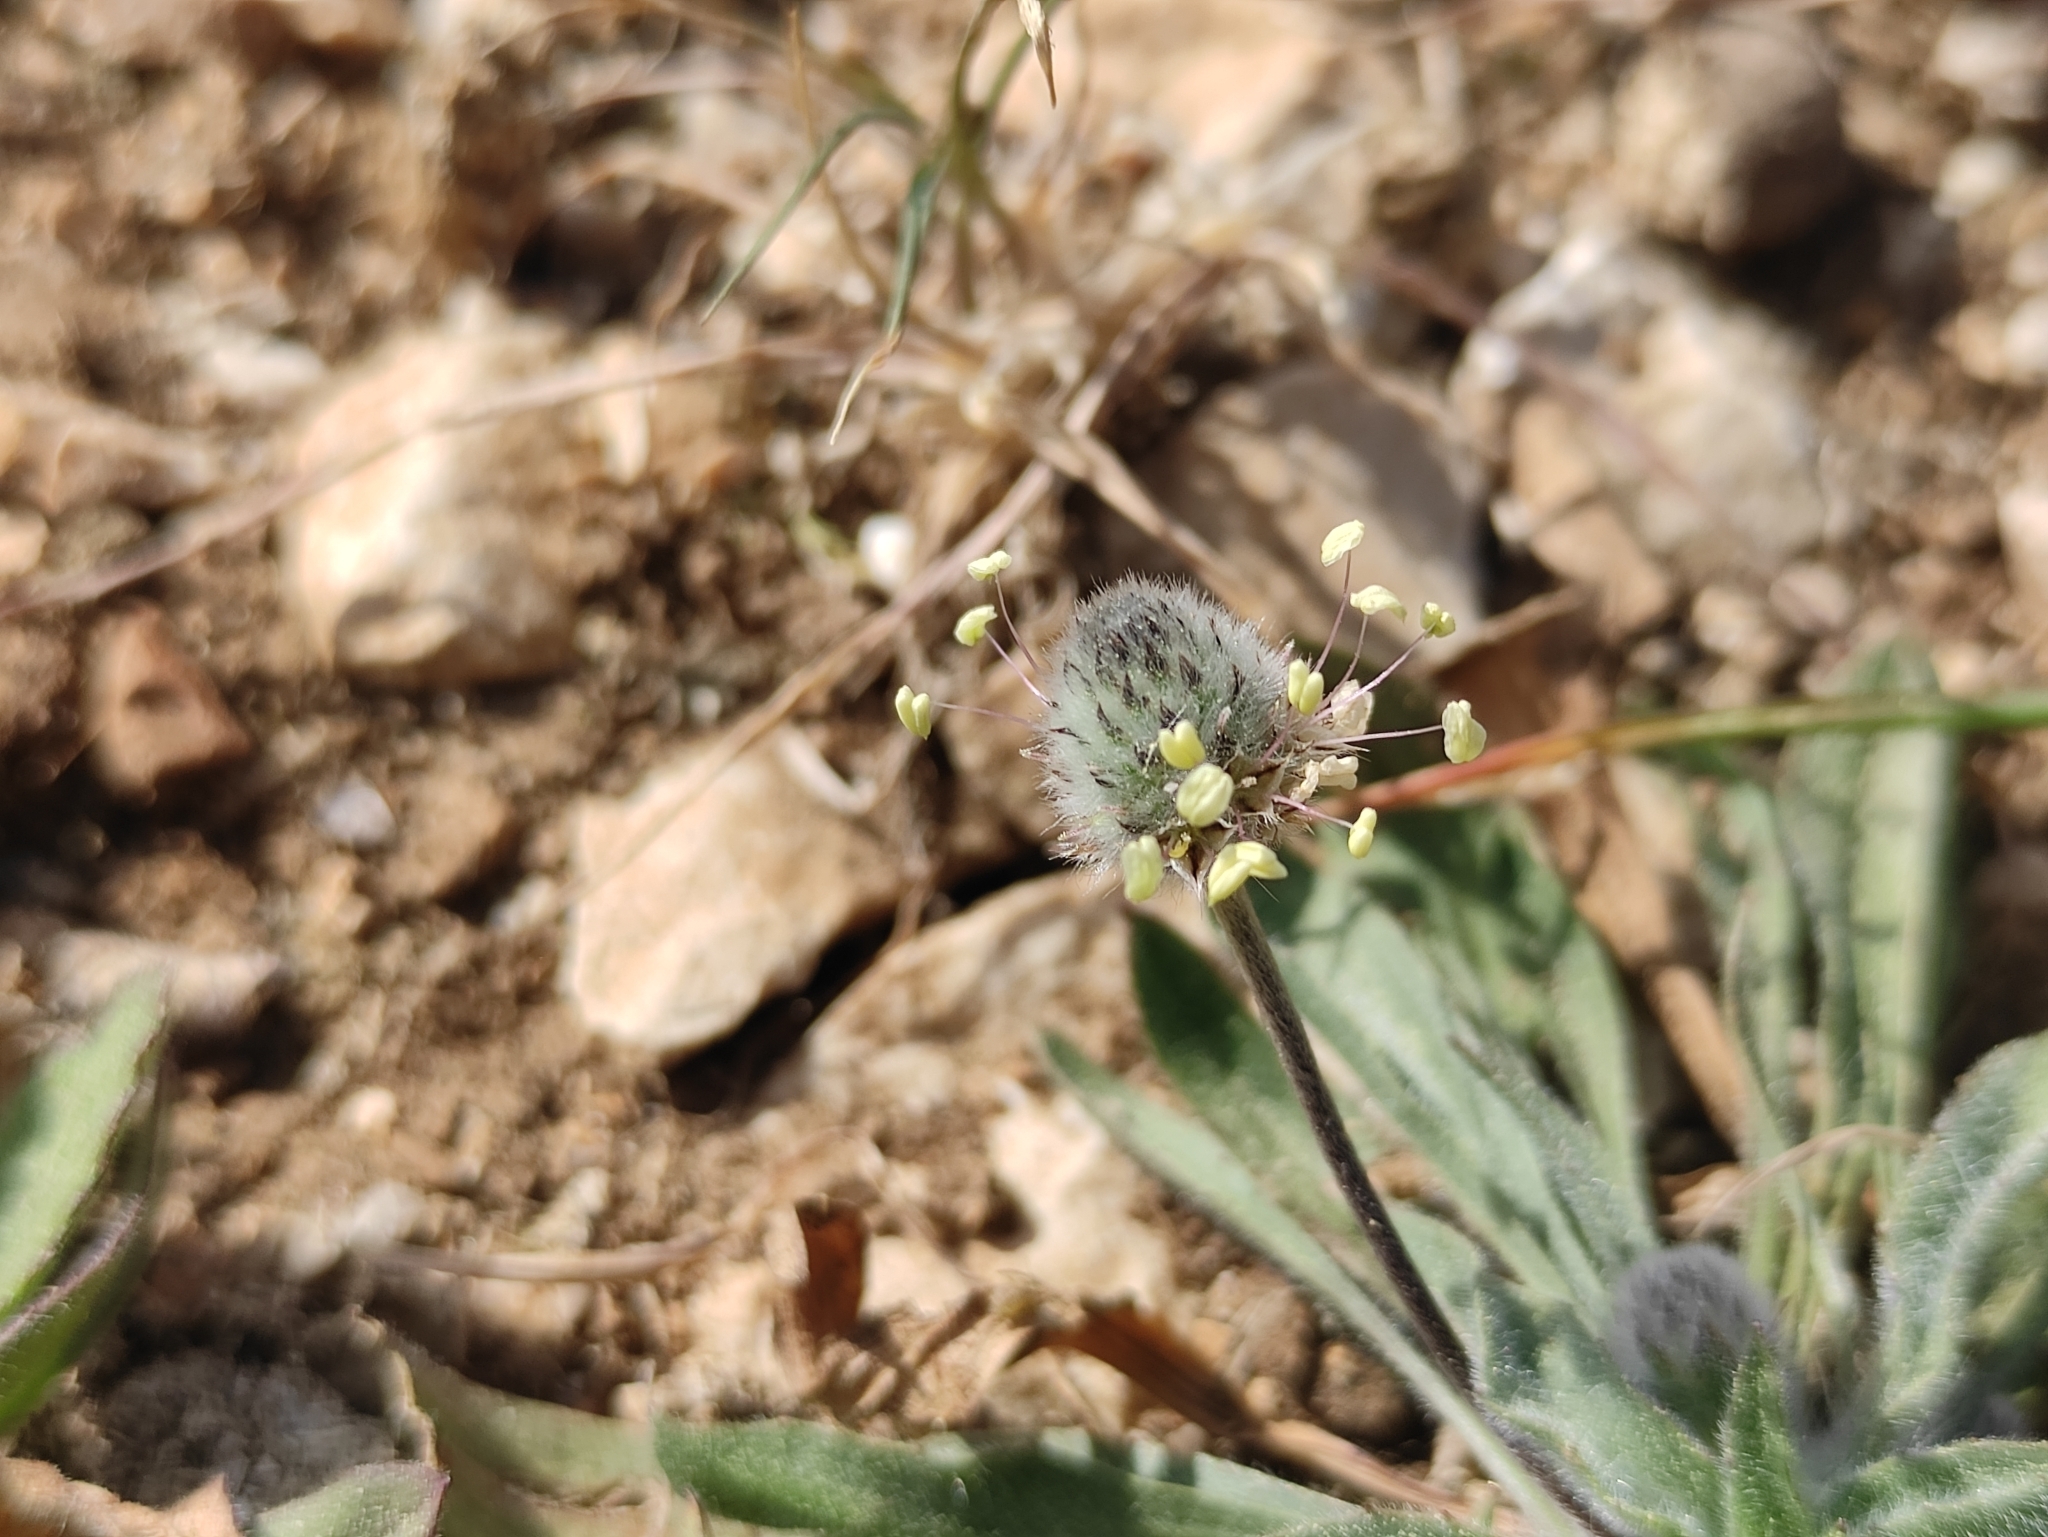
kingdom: Plantae
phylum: Tracheophyta
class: Magnoliopsida
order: Lamiales
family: Plantaginaceae
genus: Plantago
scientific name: Plantago lagopus
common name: Hare-foot plantain
